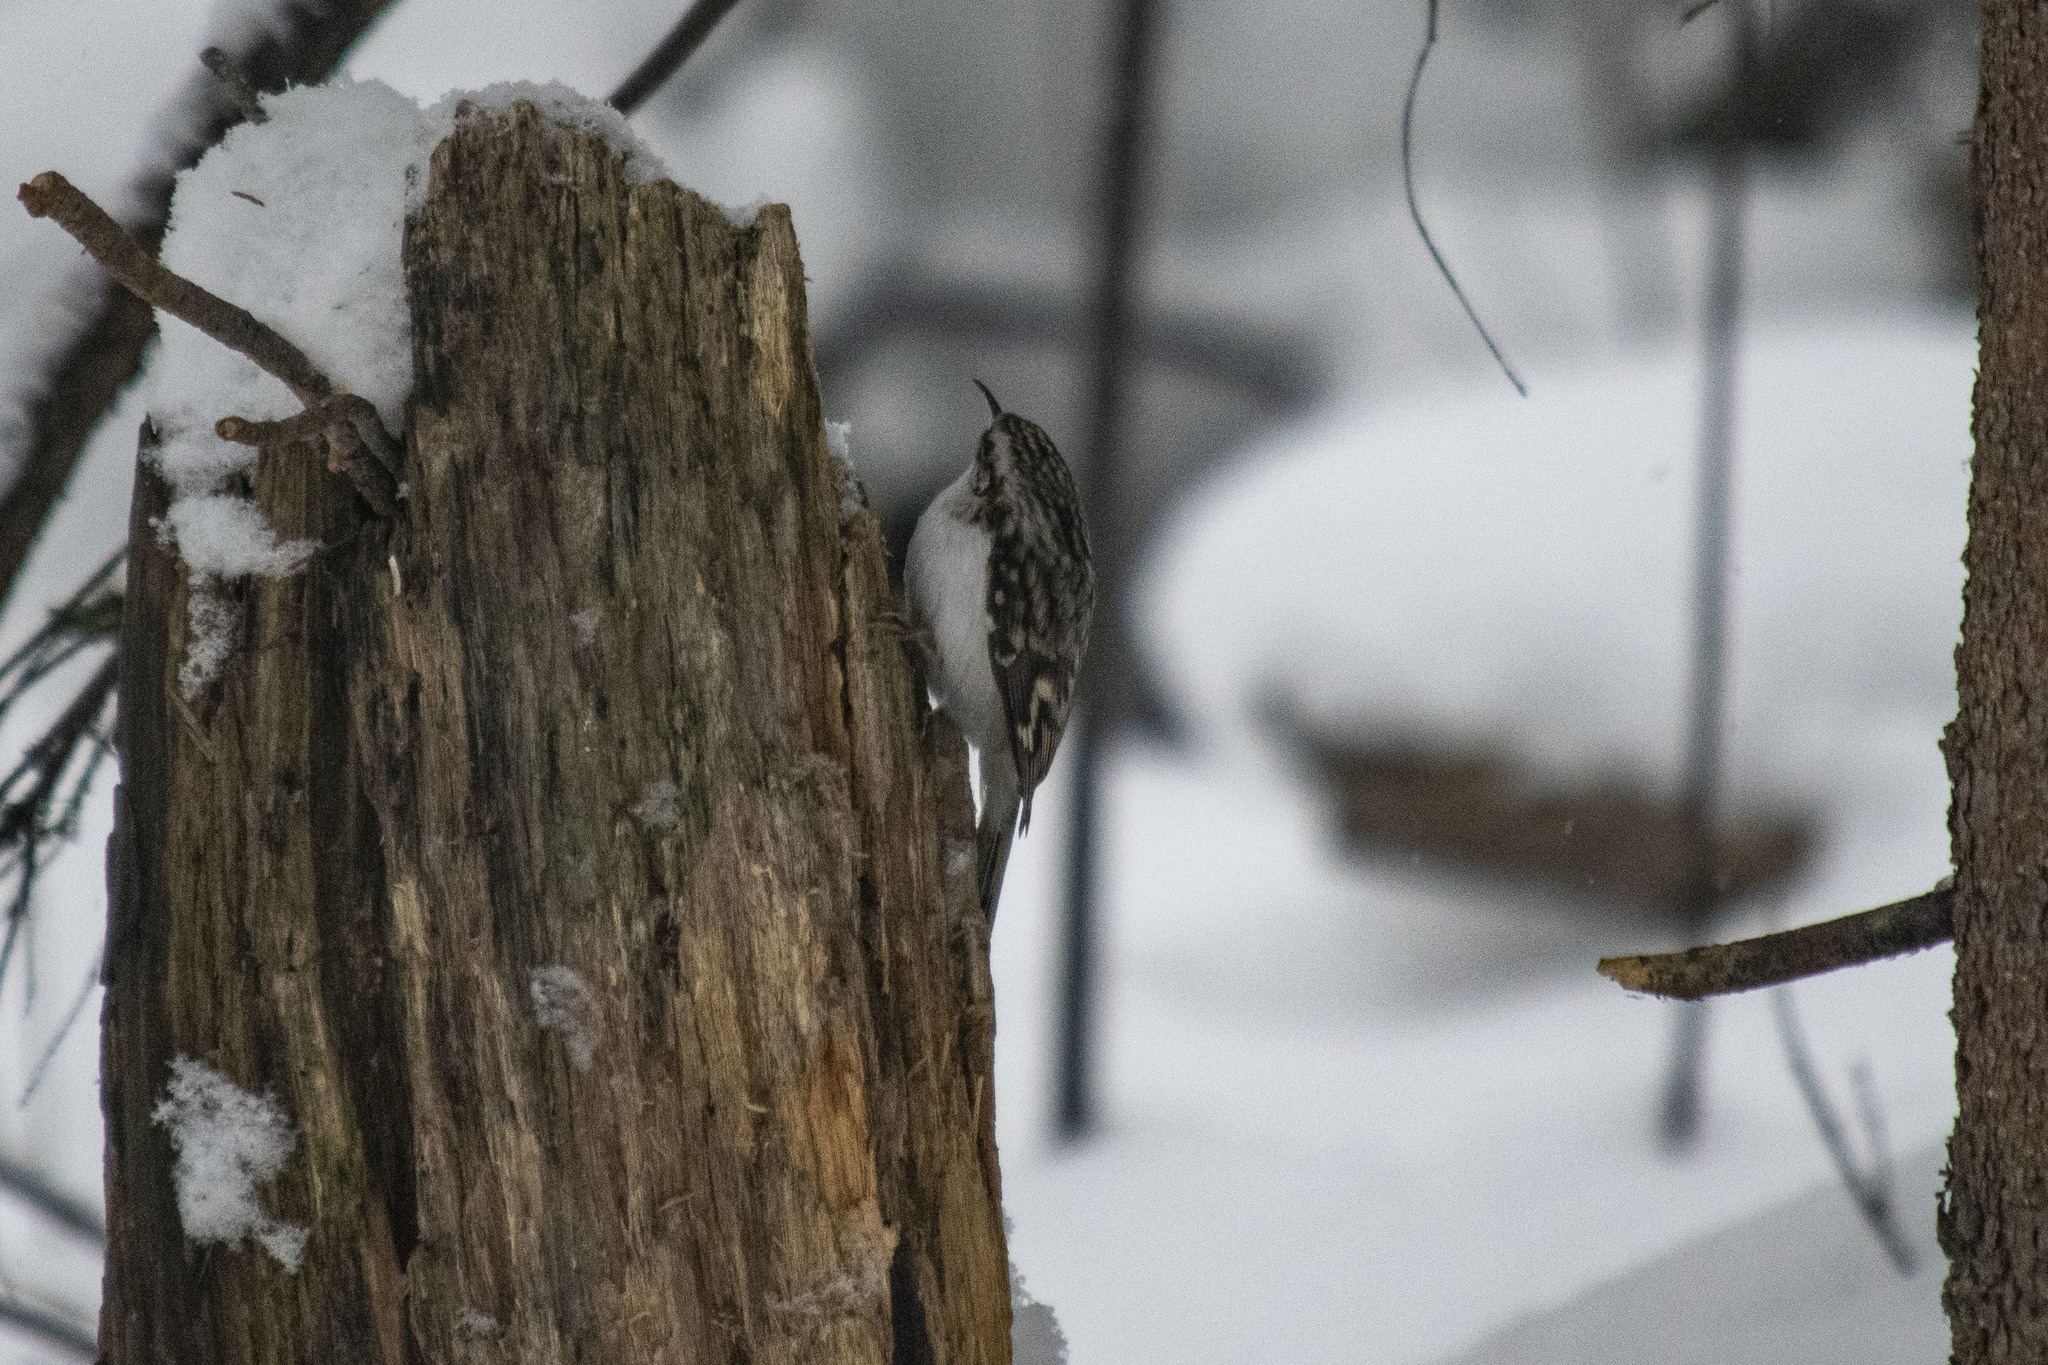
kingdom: Animalia
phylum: Chordata
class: Aves
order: Passeriformes
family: Certhiidae
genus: Certhia
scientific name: Certhia familiaris
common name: Eurasian treecreeper
